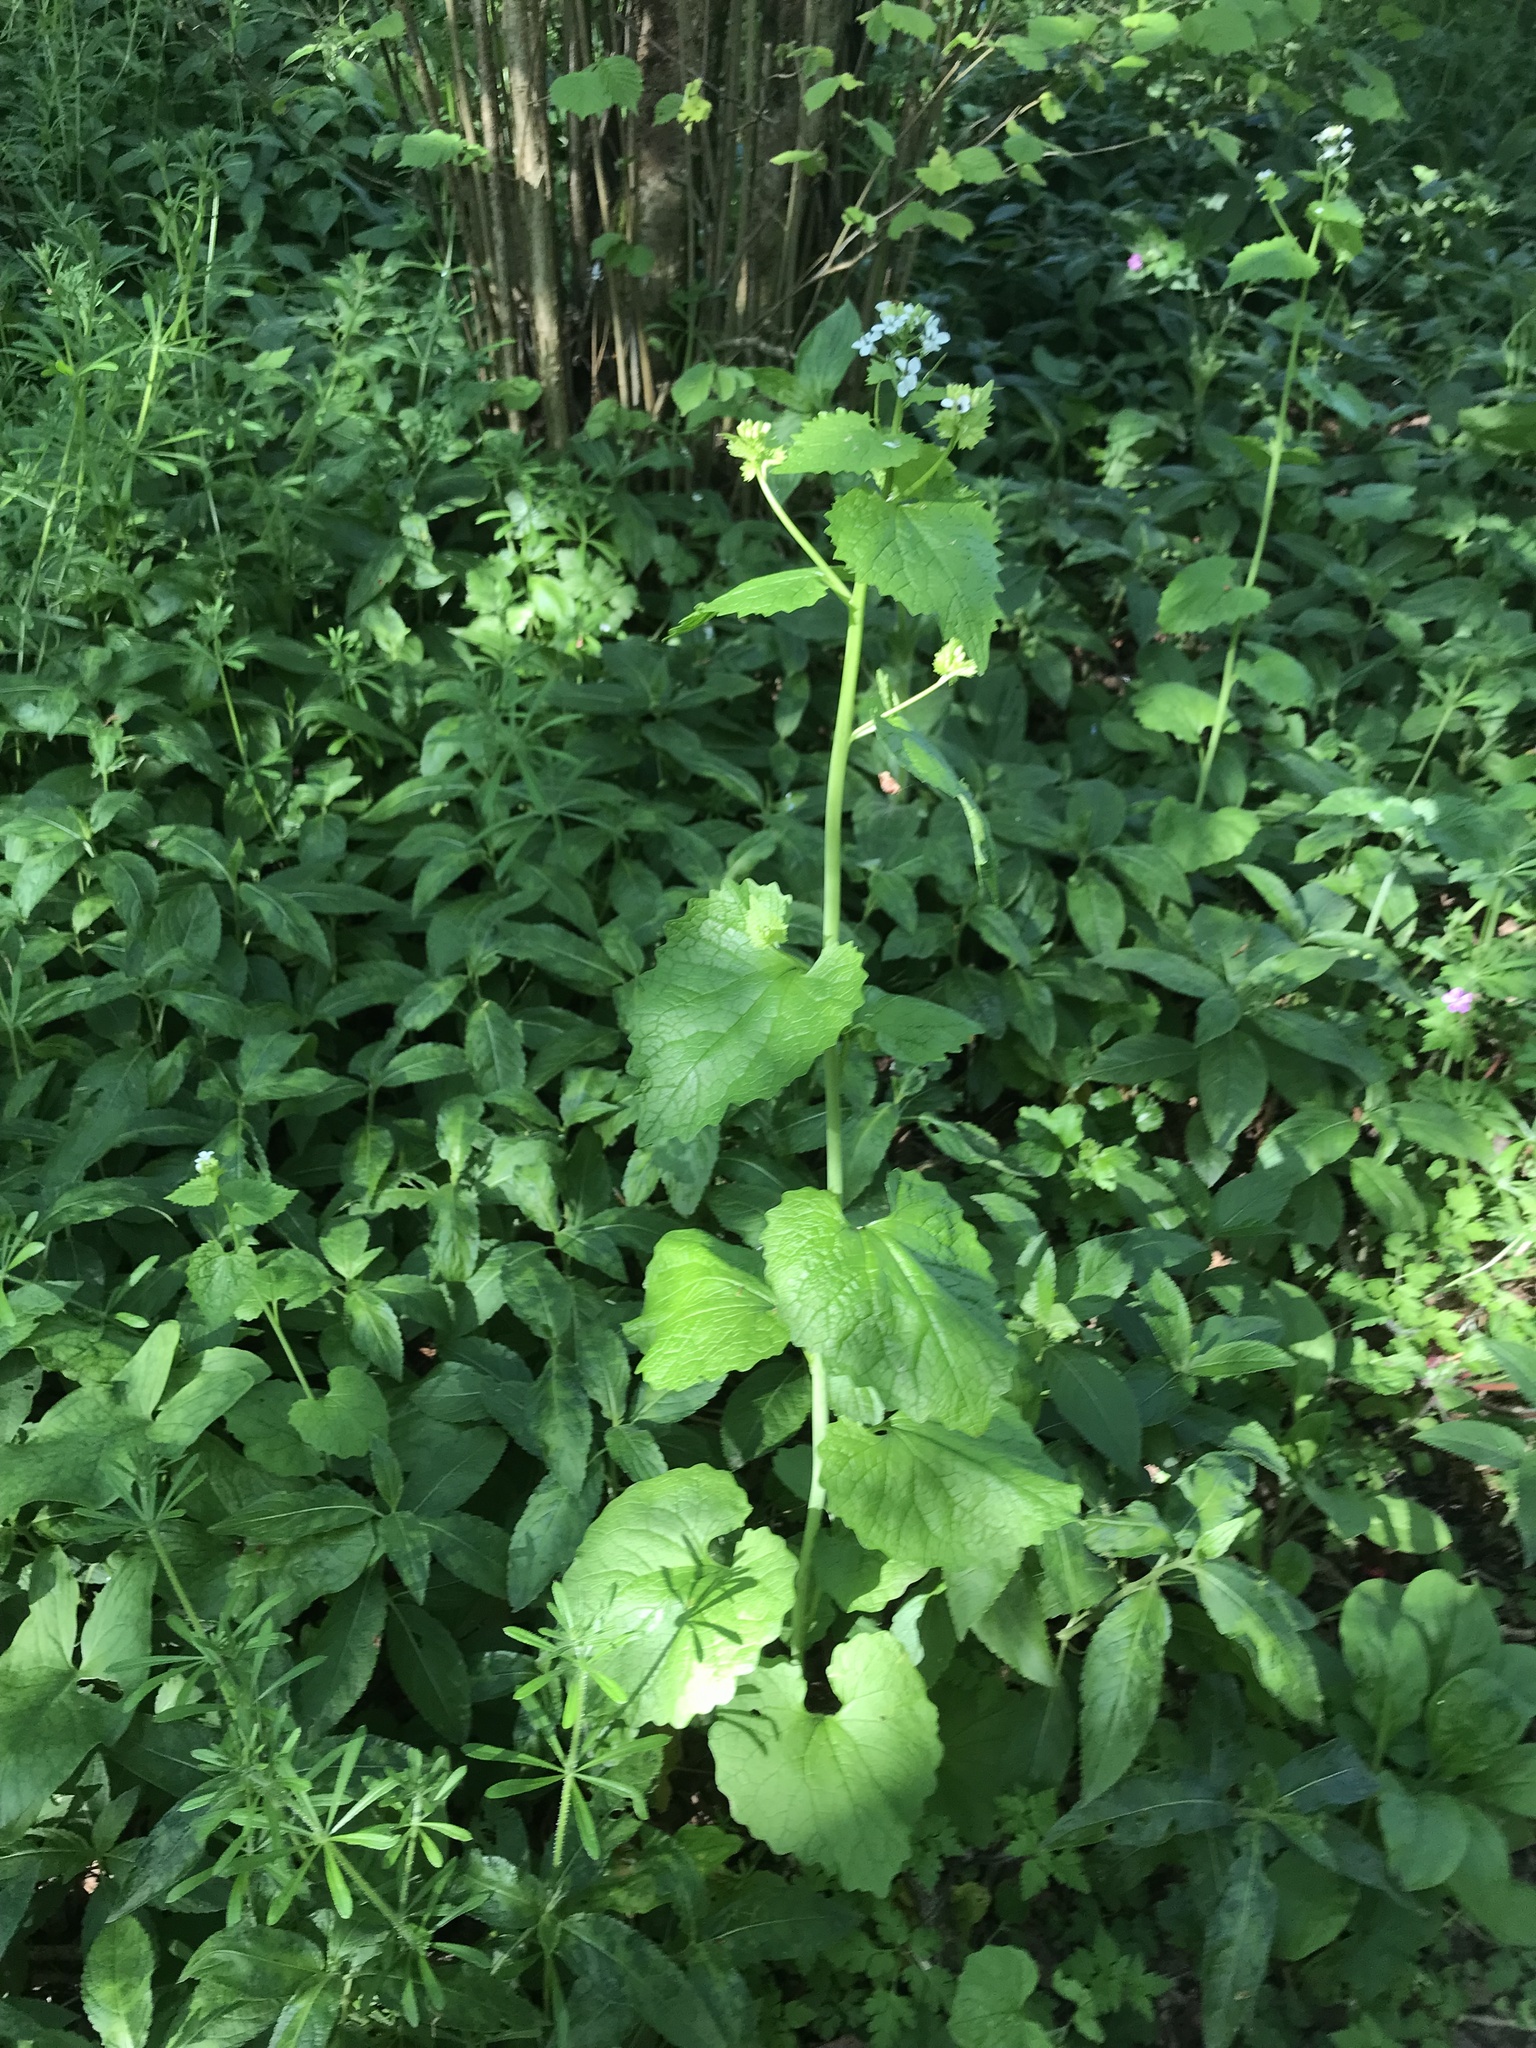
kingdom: Plantae
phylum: Tracheophyta
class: Magnoliopsida
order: Brassicales
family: Brassicaceae
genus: Alliaria
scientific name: Alliaria petiolata
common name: Garlic mustard
